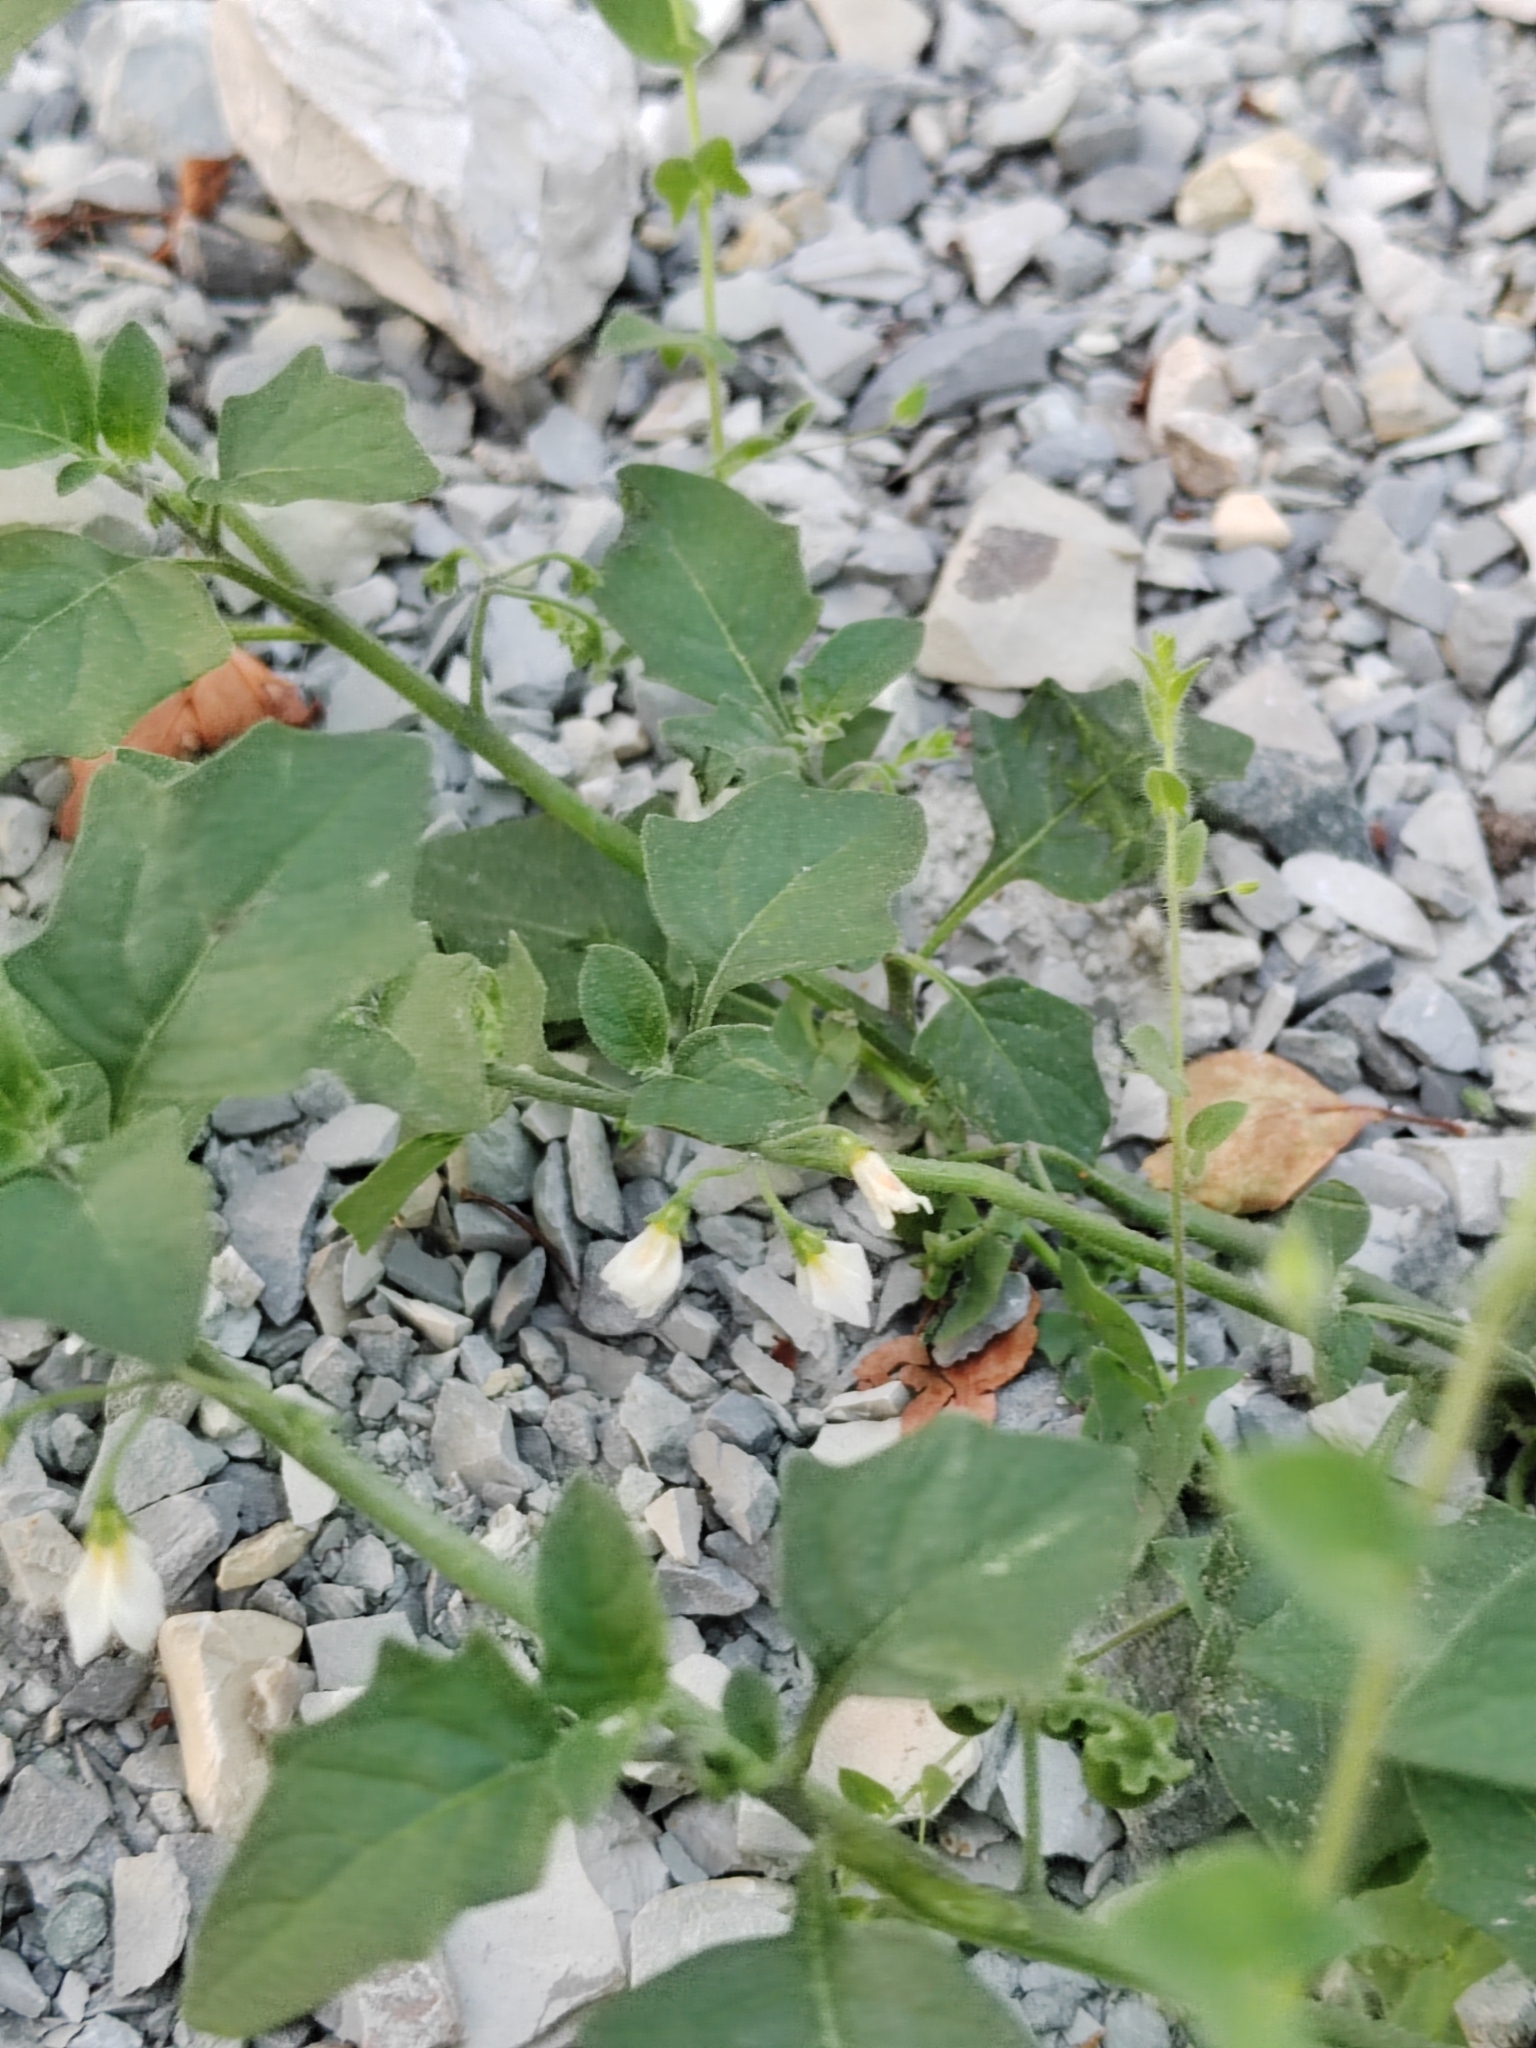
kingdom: Plantae
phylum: Tracheophyta
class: Magnoliopsida
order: Solanales
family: Solanaceae
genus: Solanum
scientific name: Solanum villosum
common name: Red nightshade
